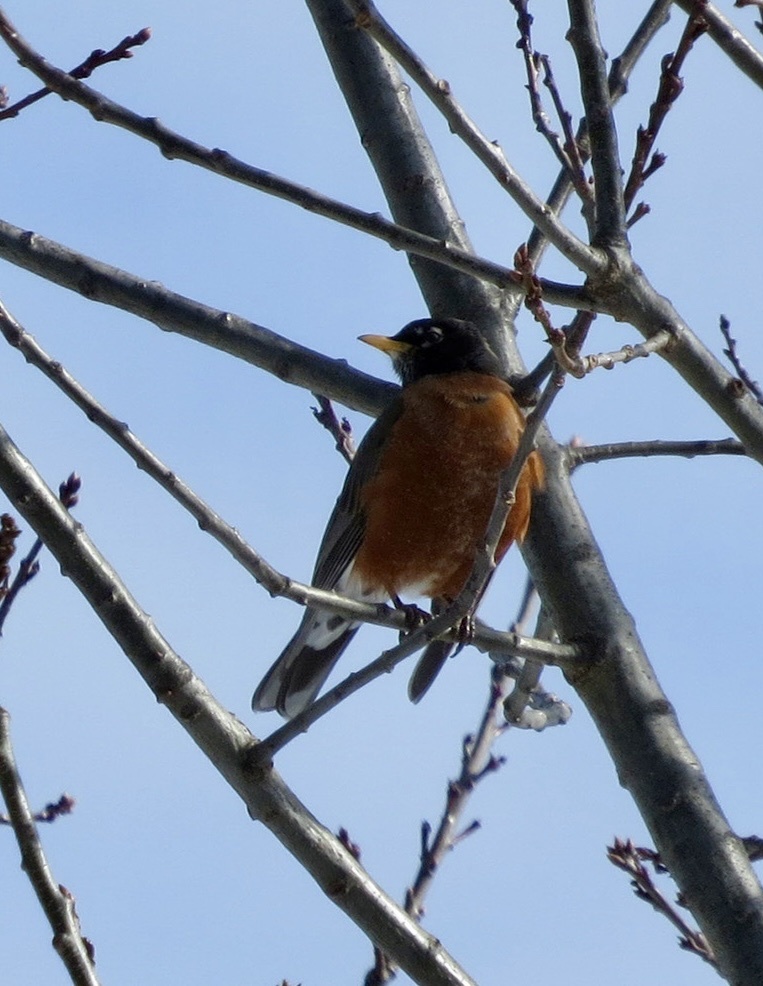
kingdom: Animalia
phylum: Chordata
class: Aves
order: Passeriformes
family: Turdidae
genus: Turdus
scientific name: Turdus migratorius
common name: American robin
